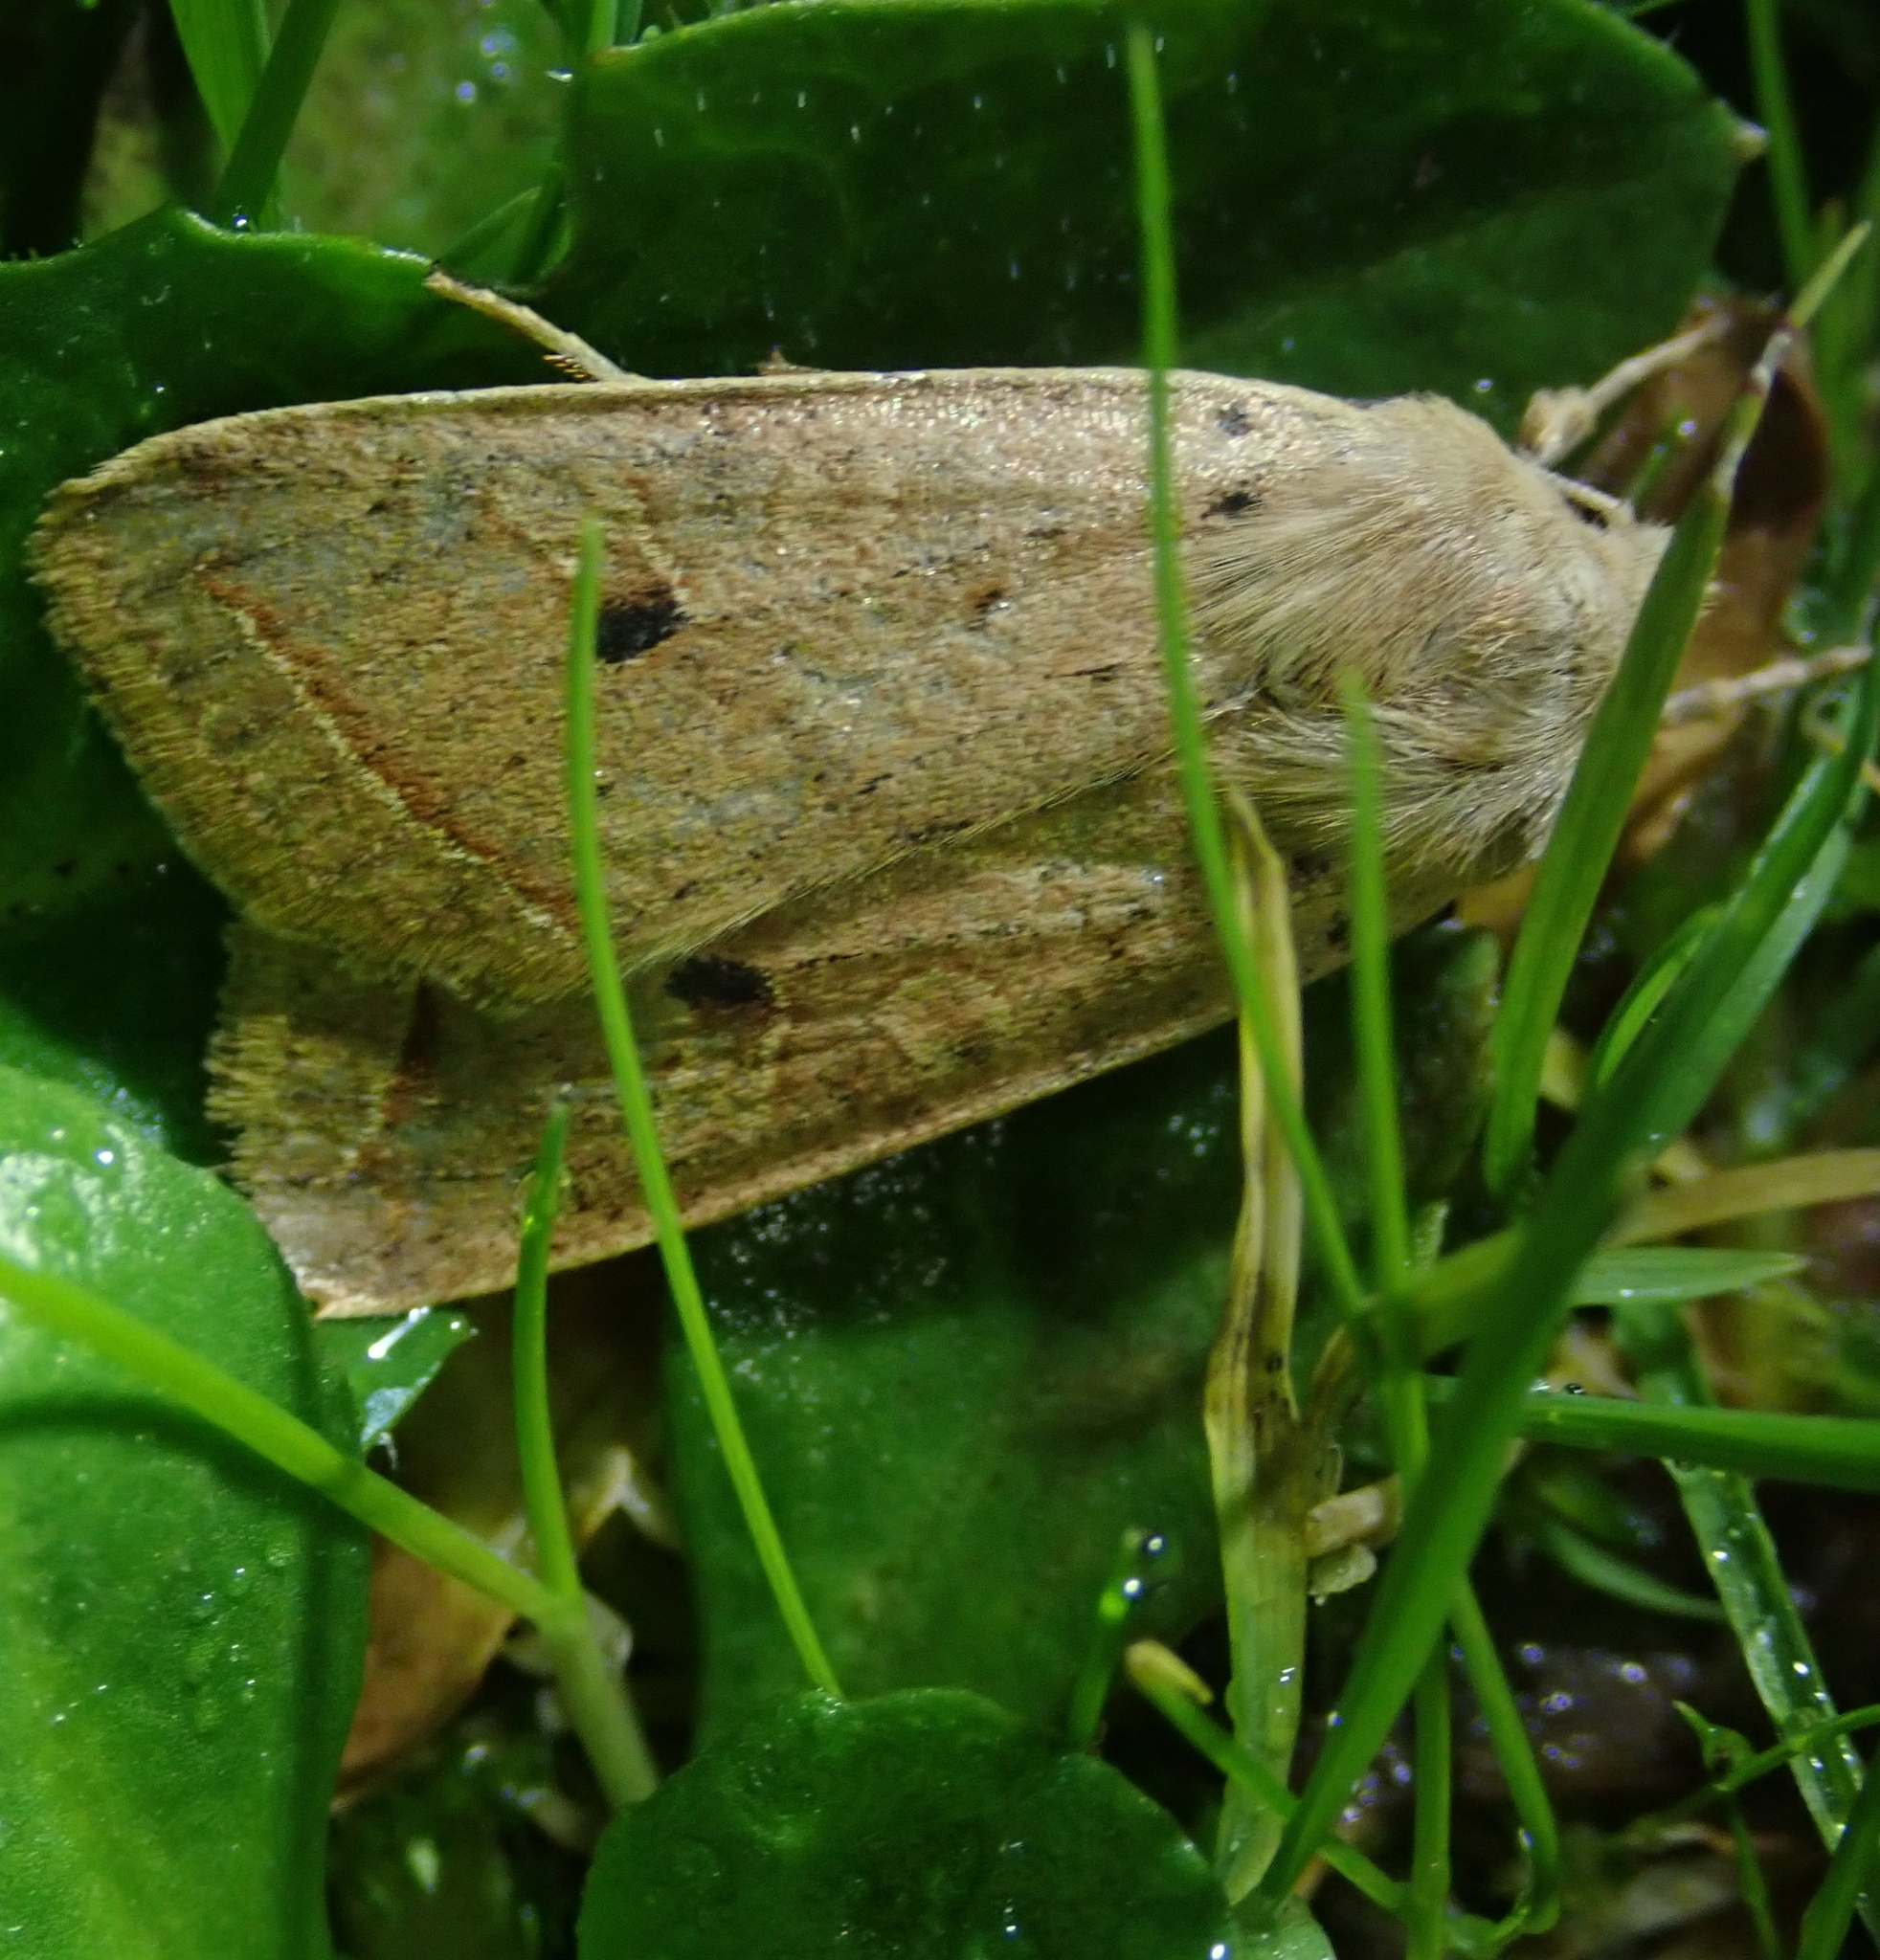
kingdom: Animalia
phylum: Arthropoda
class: Insecta
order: Lepidoptera
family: Noctuidae
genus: Agrochola
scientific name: Agrochola macilenta
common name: Yellow-line quaker
